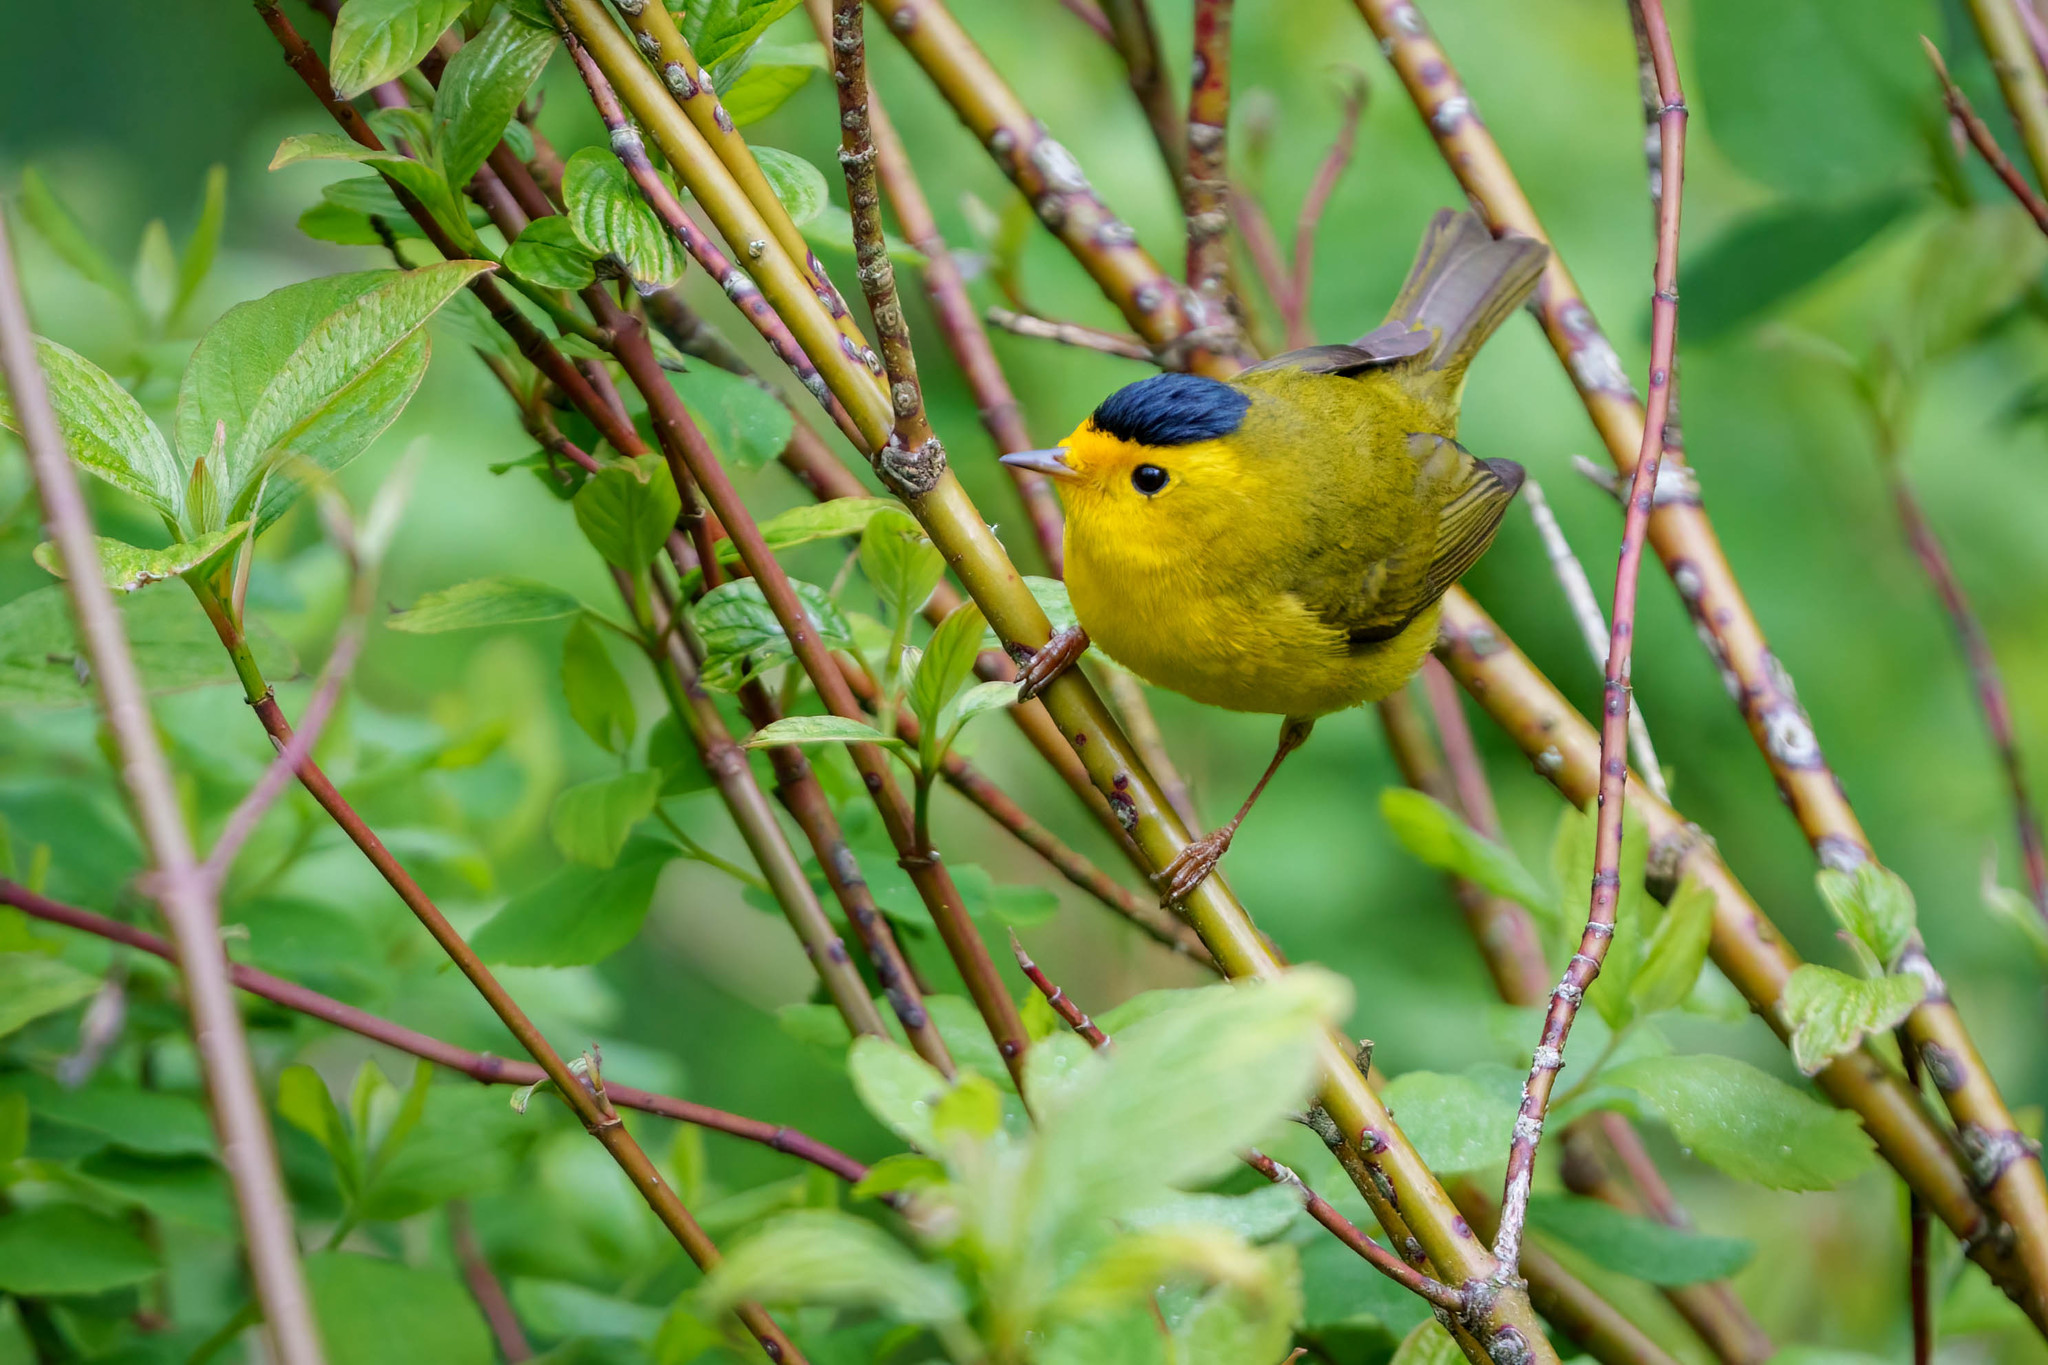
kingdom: Animalia
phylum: Chordata
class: Aves
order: Passeriformes
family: Parulidae
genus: Cardellina
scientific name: Cardellina pusilla
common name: Wilson's warbler
